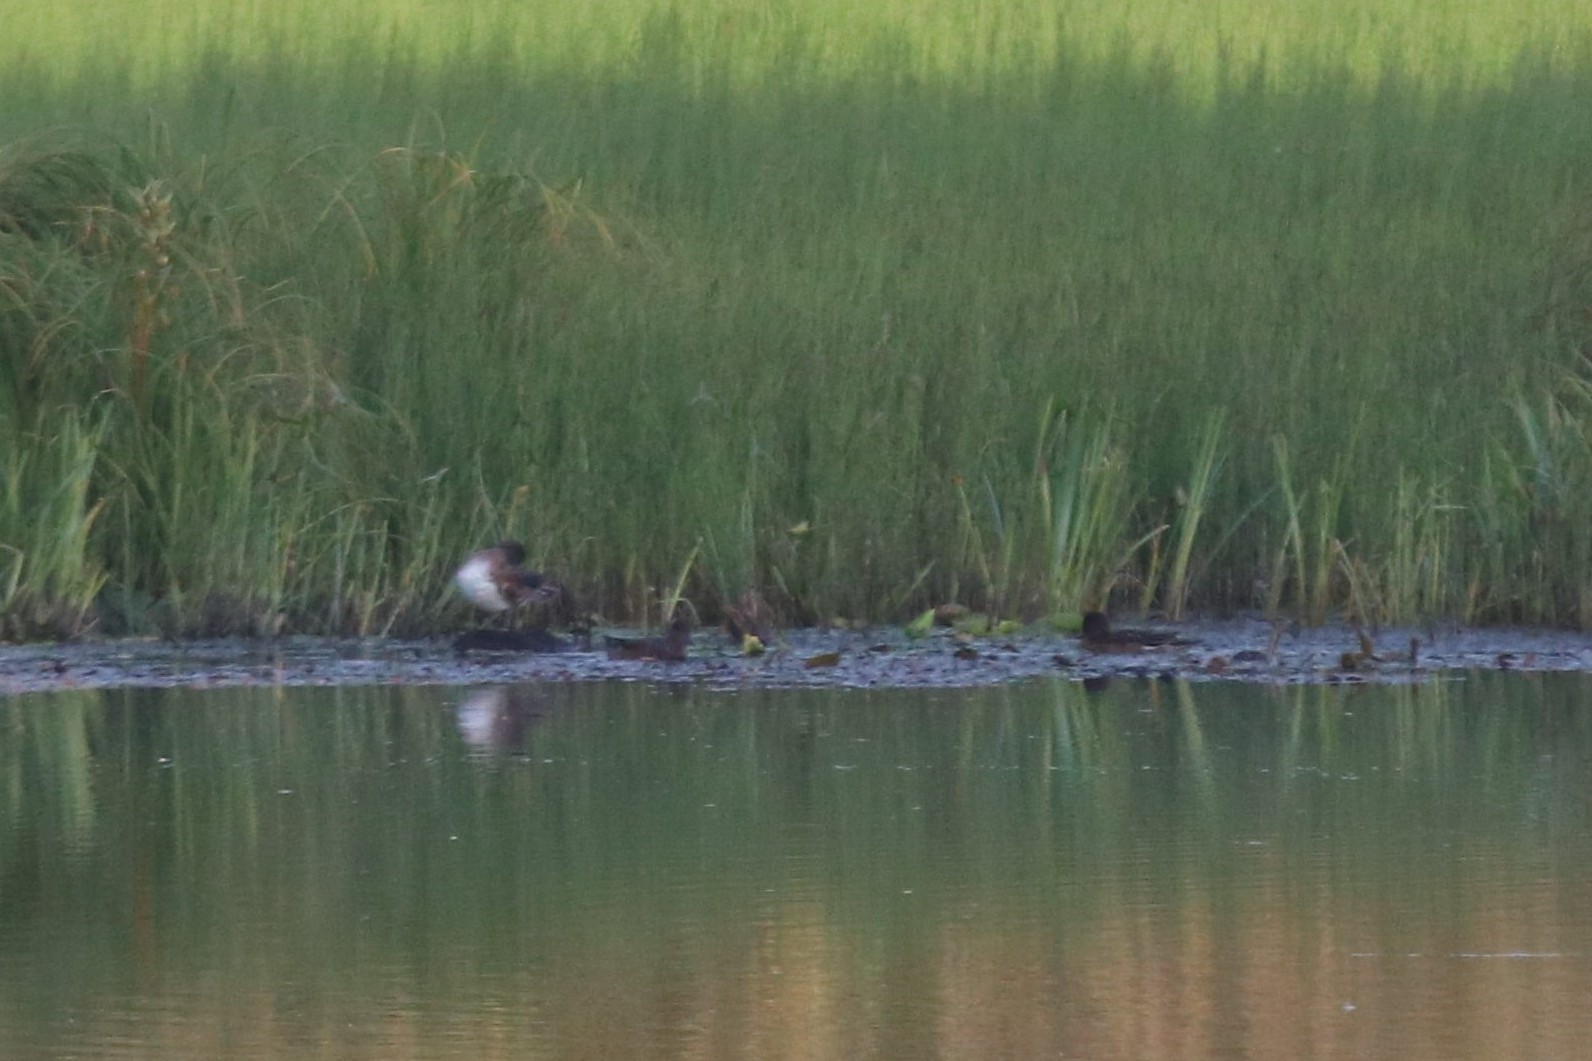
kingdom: Animalia
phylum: Chordata
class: Aves
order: Anseriformes
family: Anatidae
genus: Mareca
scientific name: Mareca penelope
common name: Eurasian wigeon
